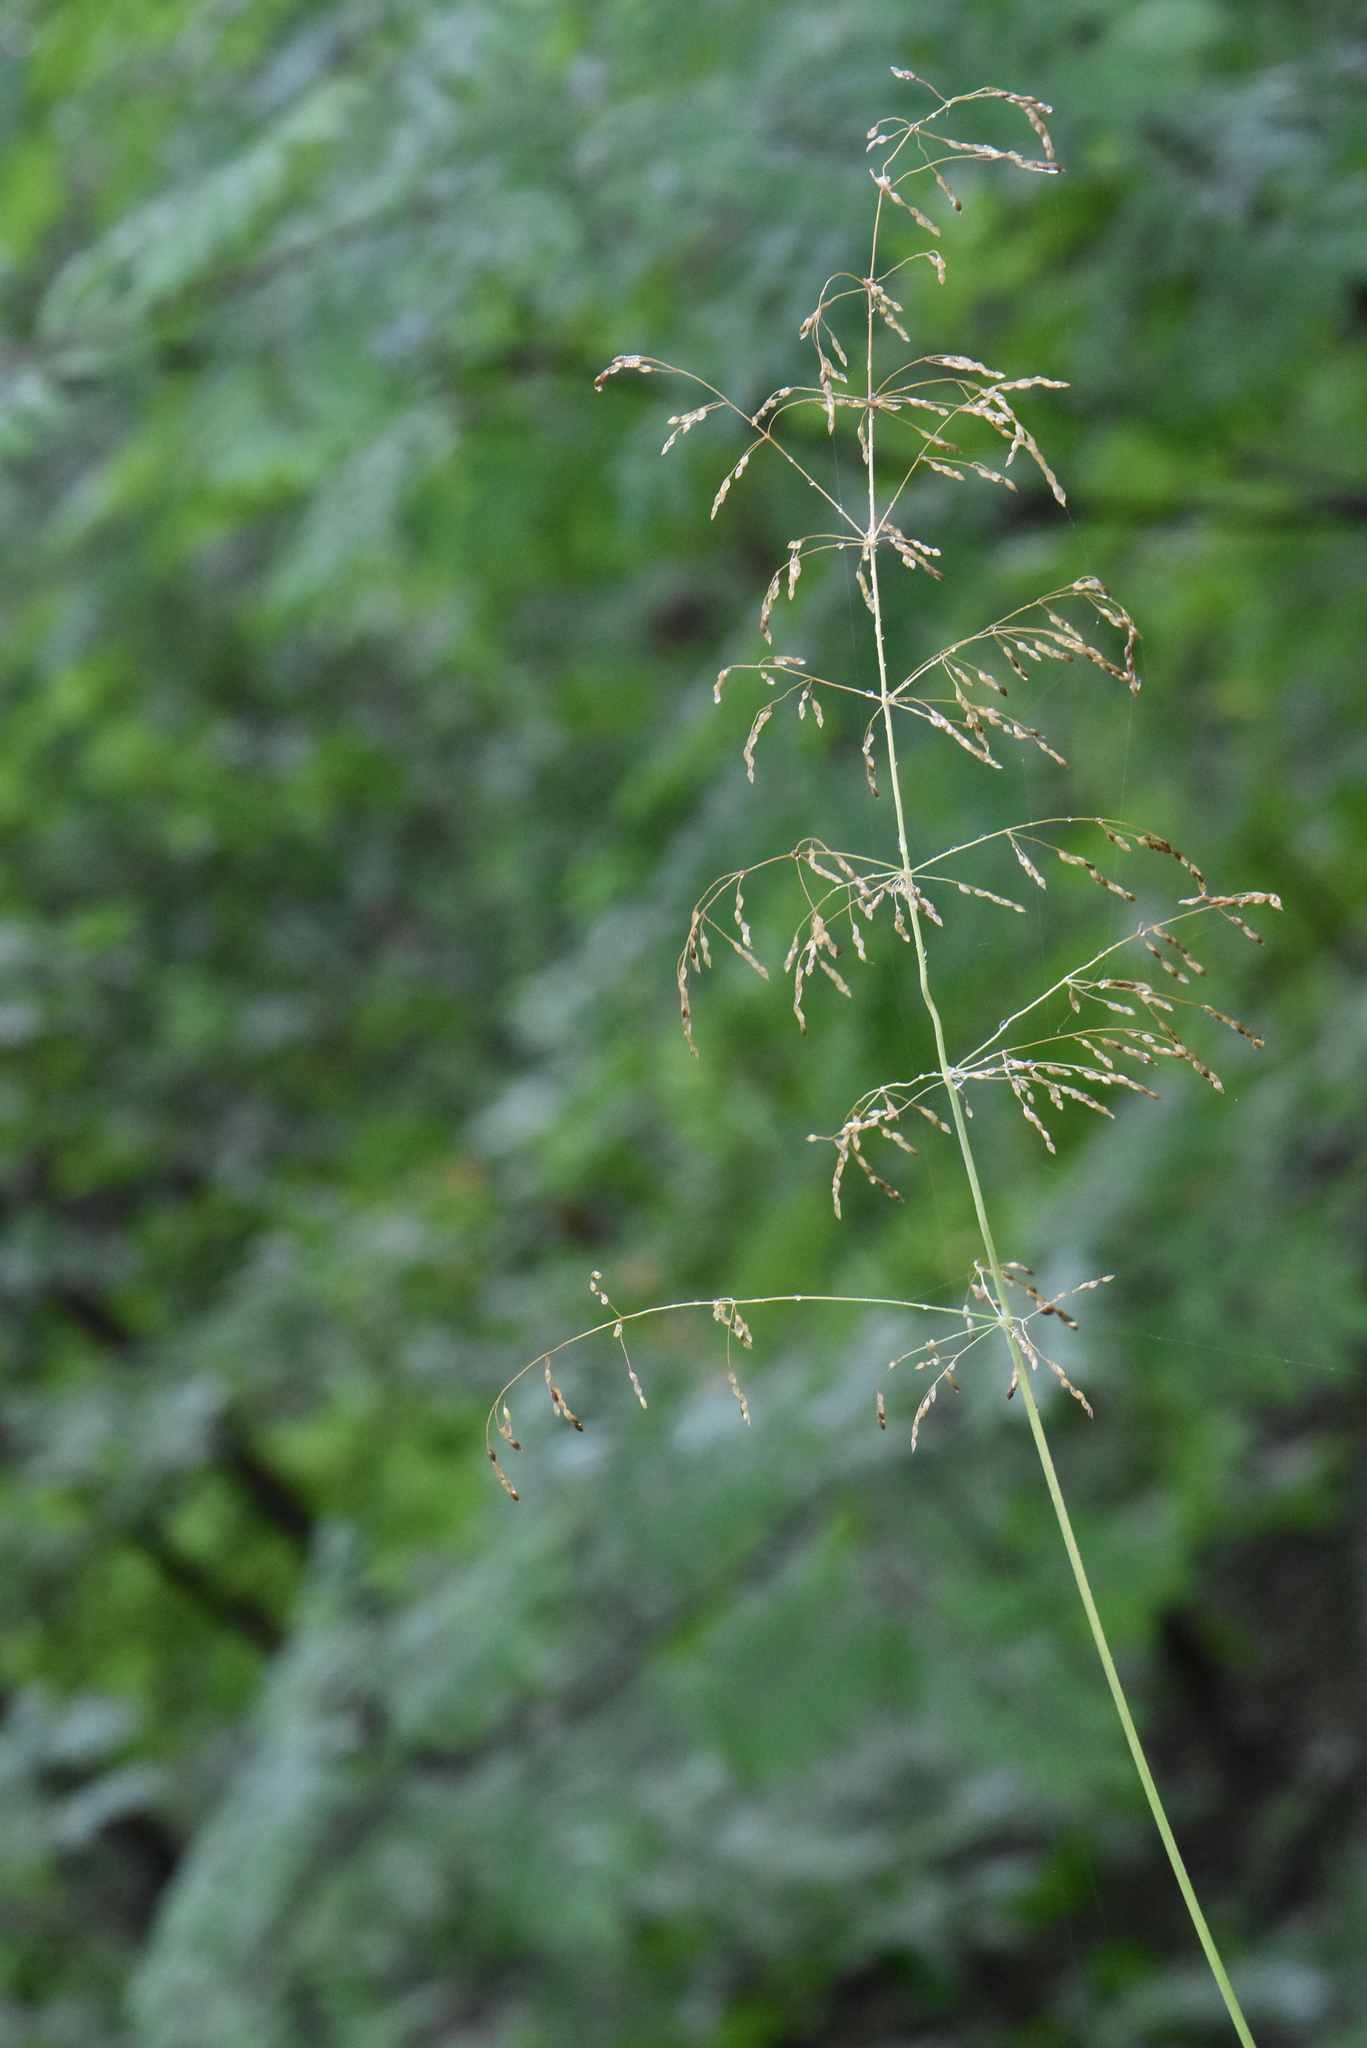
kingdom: Plantae
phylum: Tracheophyta
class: Liliopsida
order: Poales
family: Poaceae
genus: Milium
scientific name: Milium effusum
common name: Wood millet
